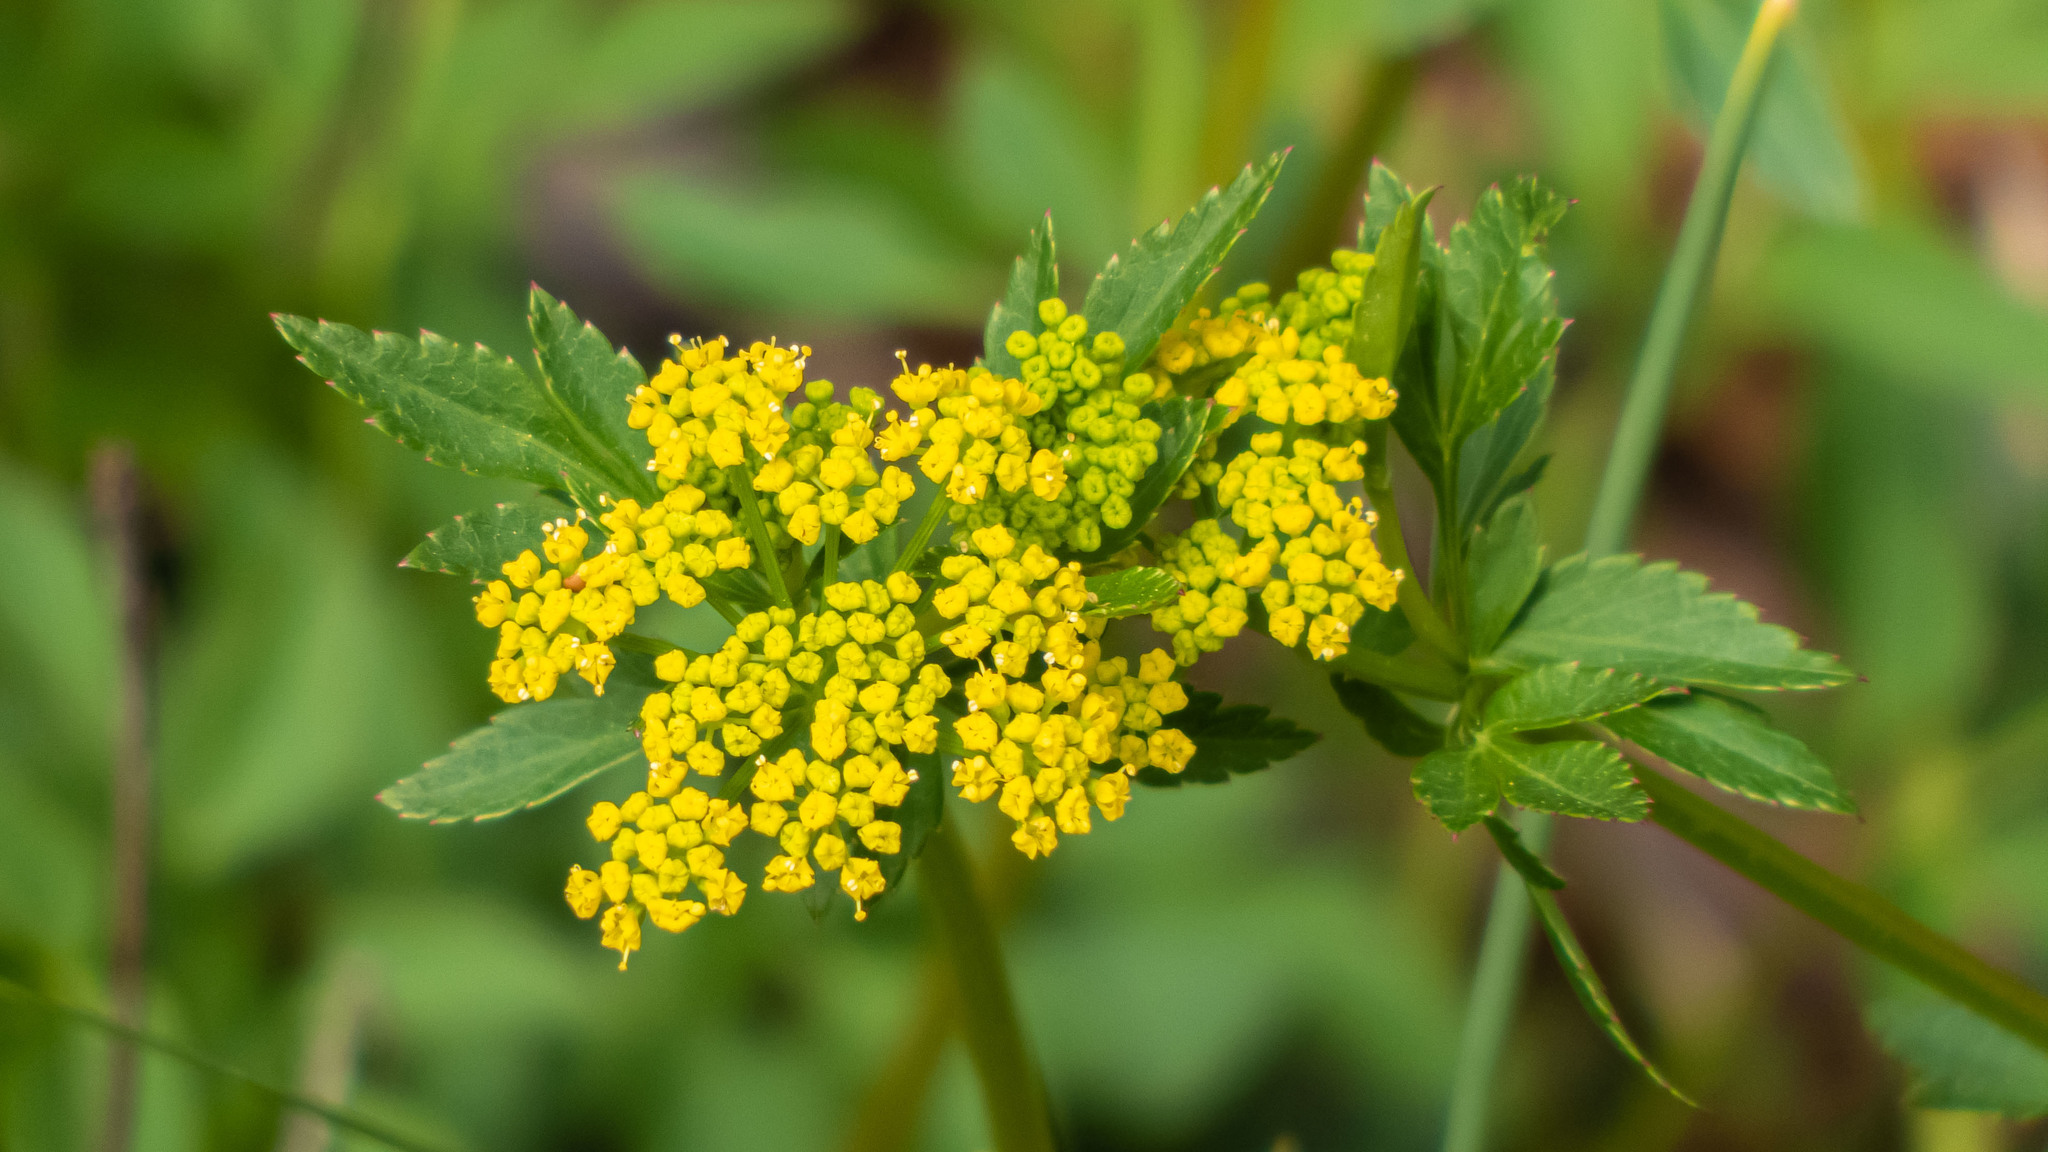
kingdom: Plantae
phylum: Tracheophyta
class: Magnoliopsida
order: Apiales
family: Apiaceae
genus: Zizia
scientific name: Zizia aurea
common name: Golden alexanders
